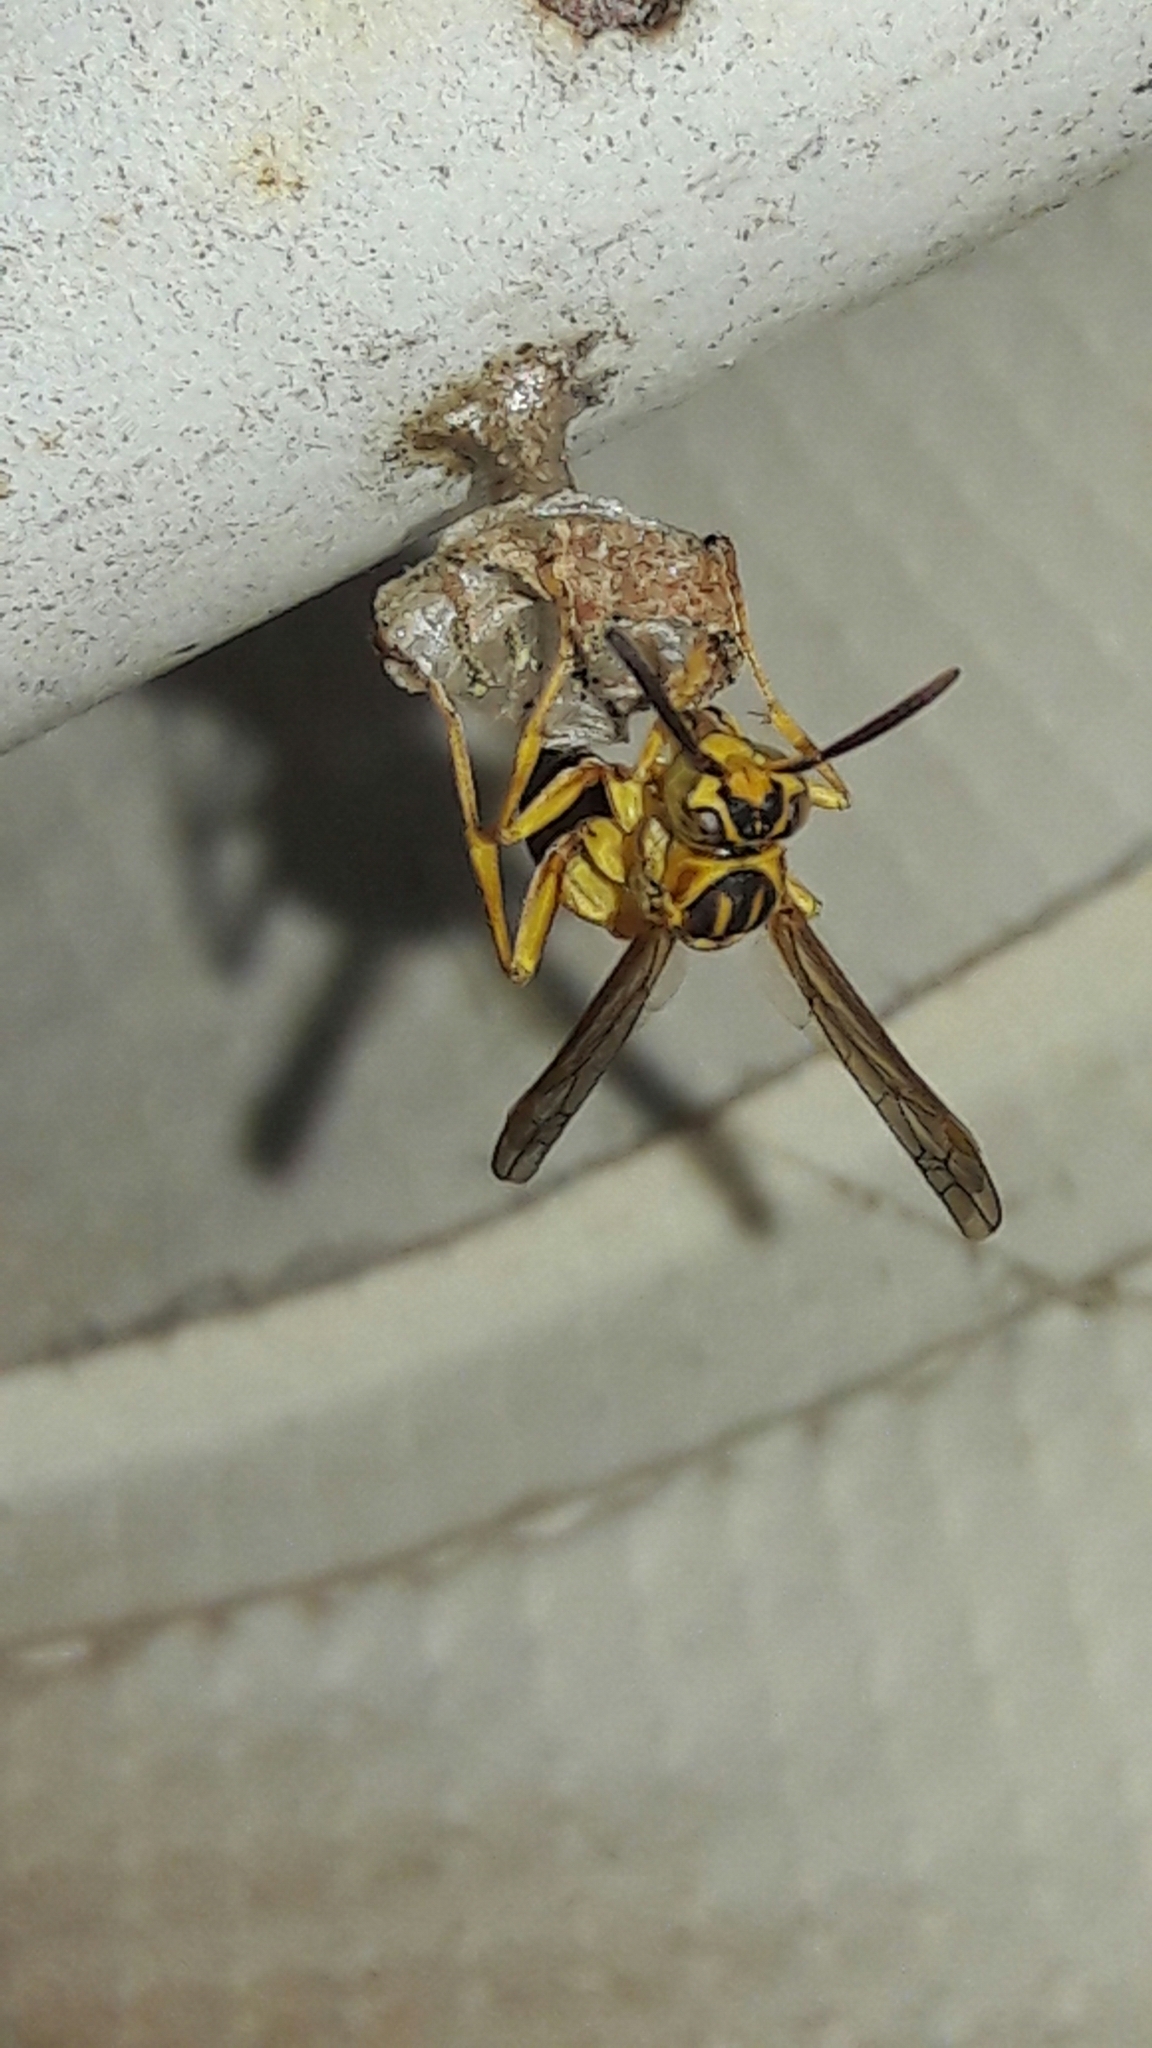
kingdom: Animalia
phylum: Arthropoda
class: Insecta
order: Hymenoptera
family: Vespidae
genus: Mischocyttarus
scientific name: Mischocyttarus cerberus
